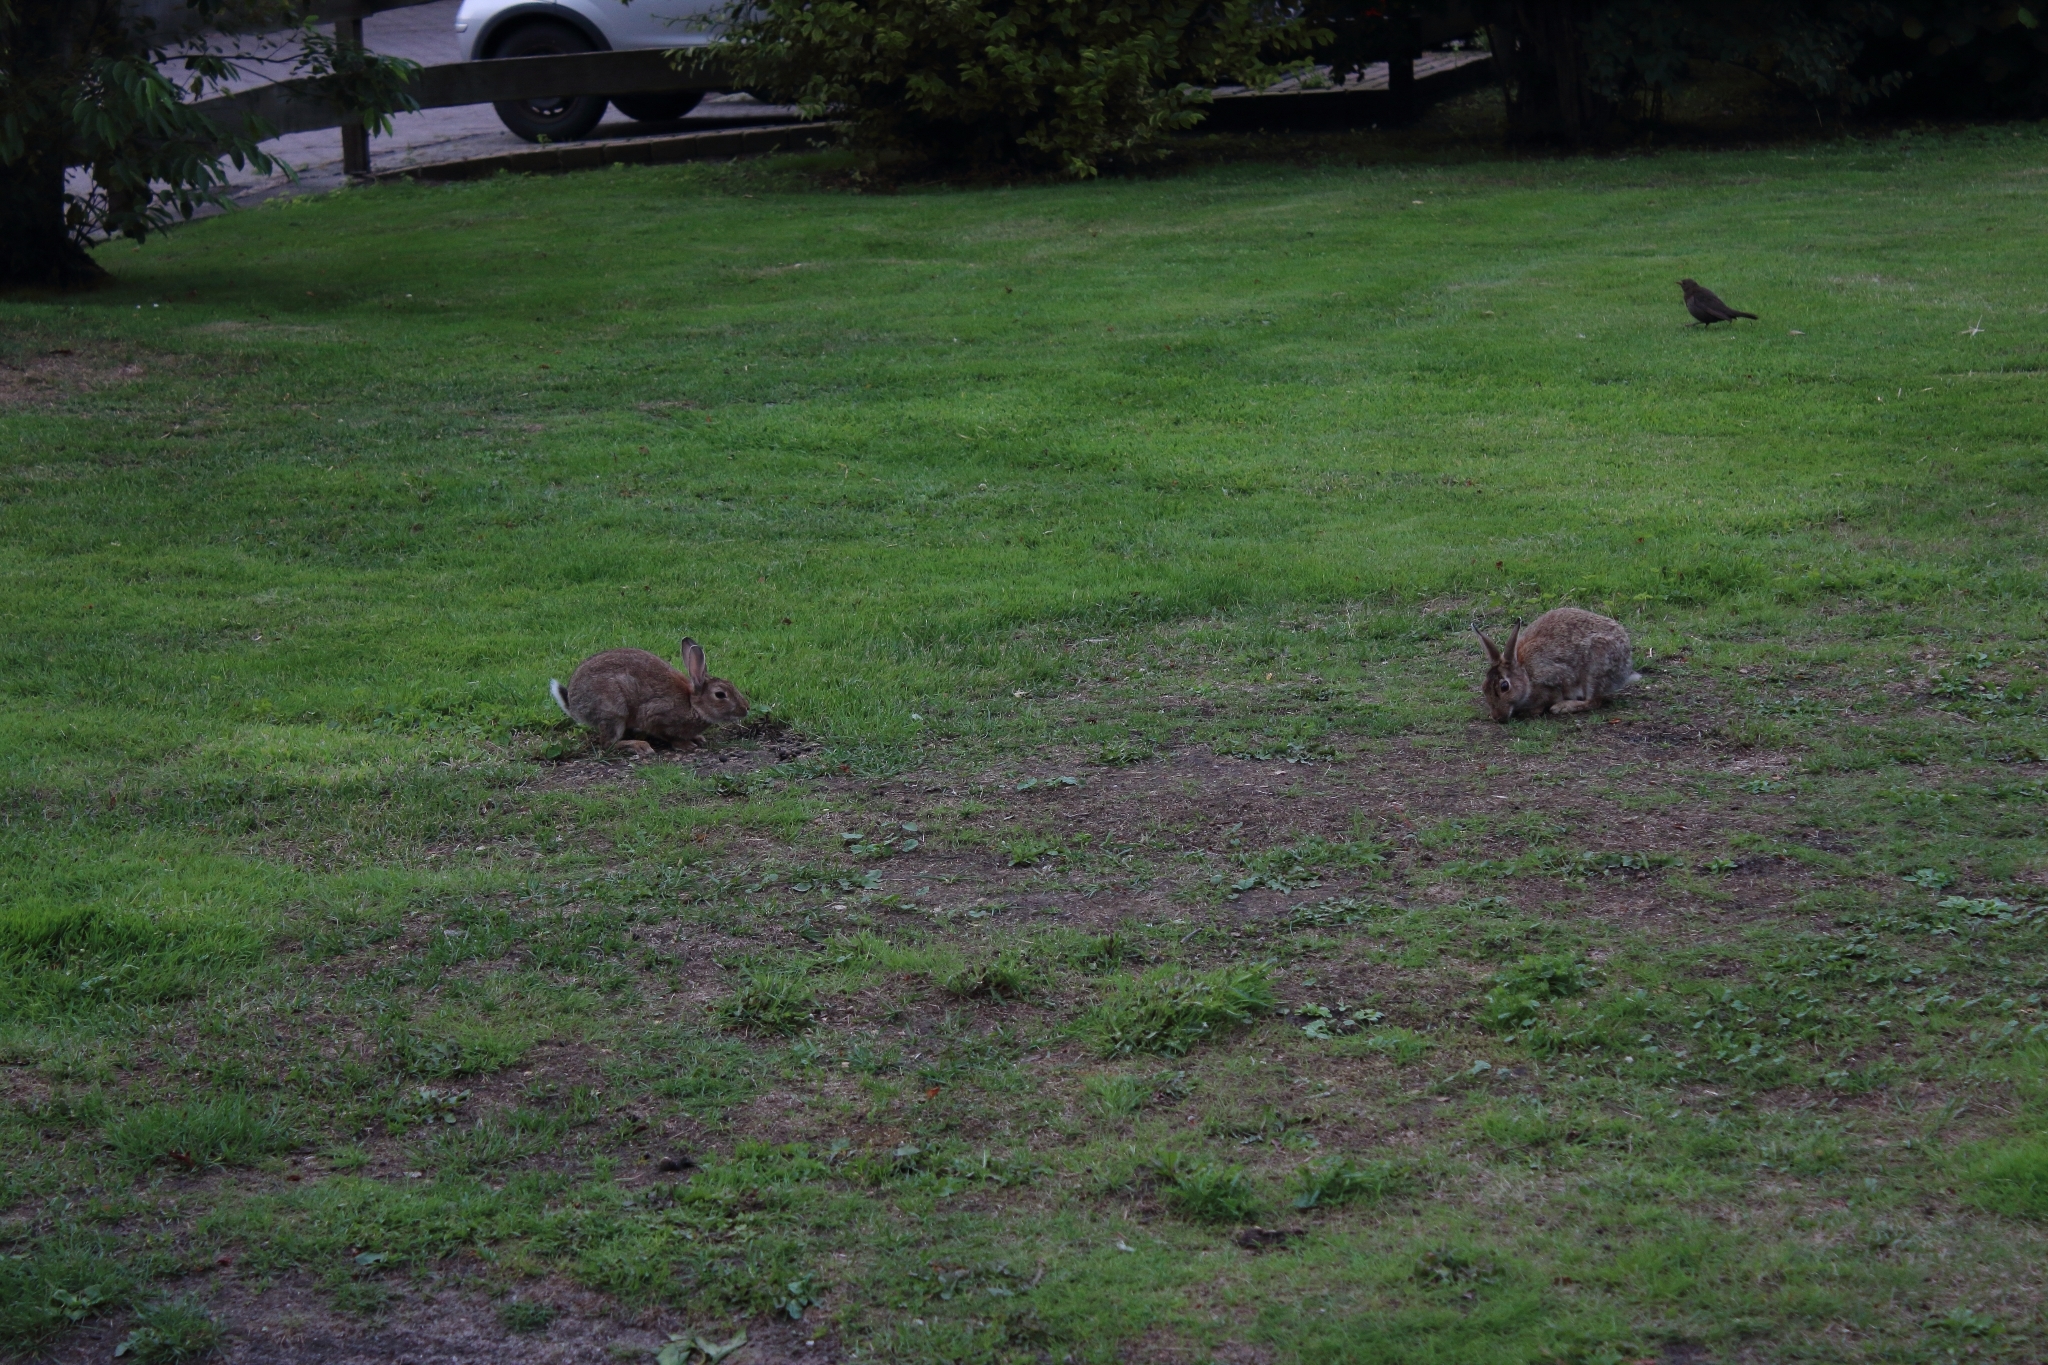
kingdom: Animalia
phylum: Chordata
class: Mammalia
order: Lagomorpha
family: Leporidae
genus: Oryctolagus
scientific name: Oryctolagus cuniculus
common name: European rabbit
